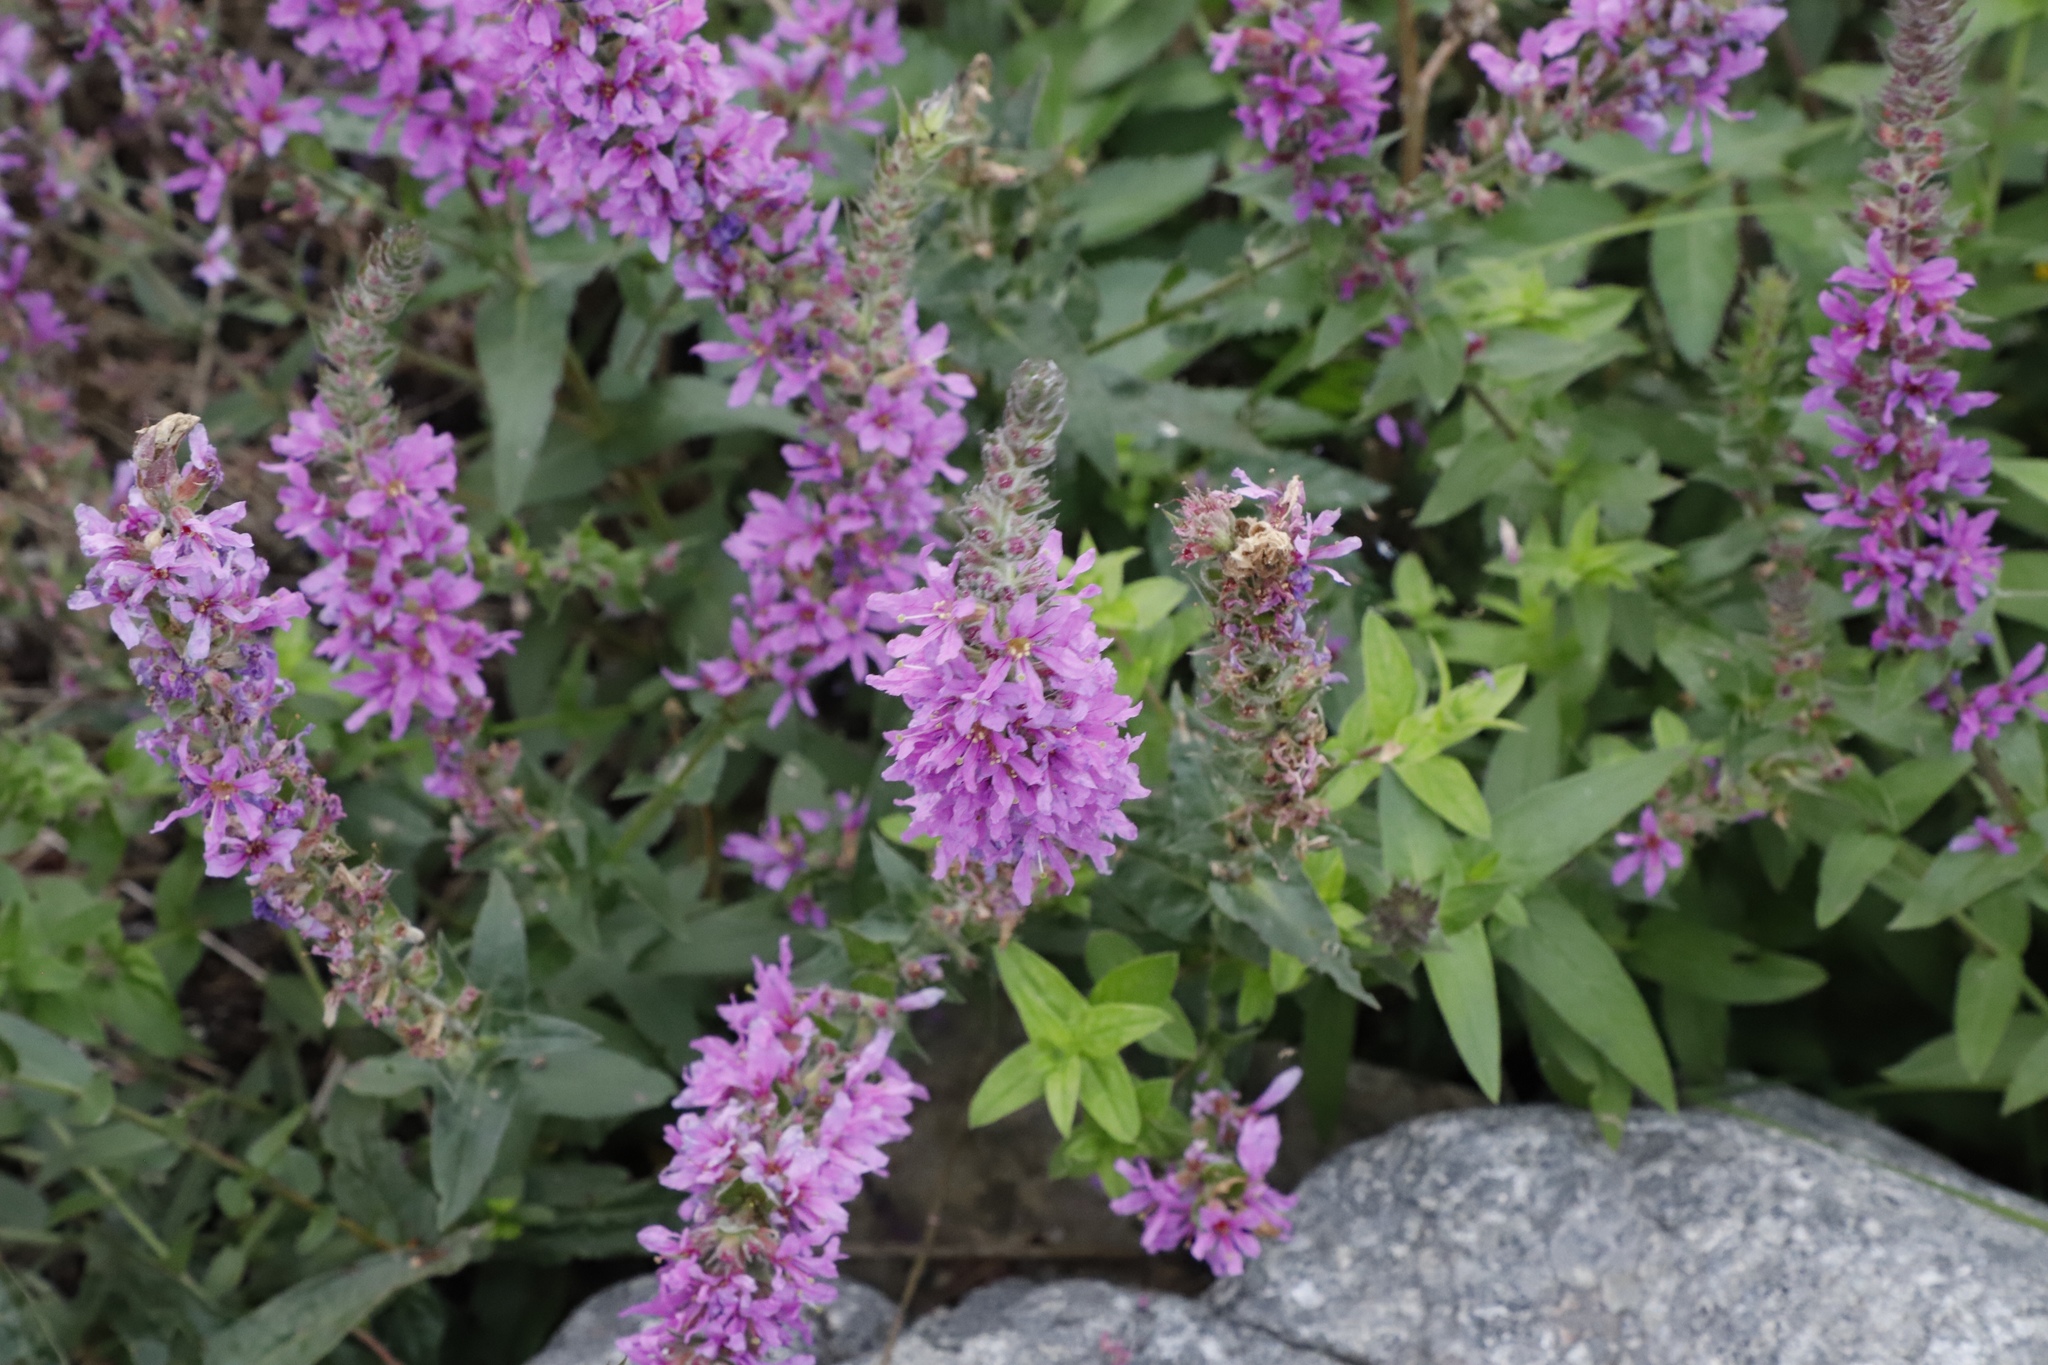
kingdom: Plantae
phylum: Tracheophyta
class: Magnoliopsida
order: Myrtales
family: Lythraceae
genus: Lythrum
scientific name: Lythrum salicaria
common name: Purple loosestrife
